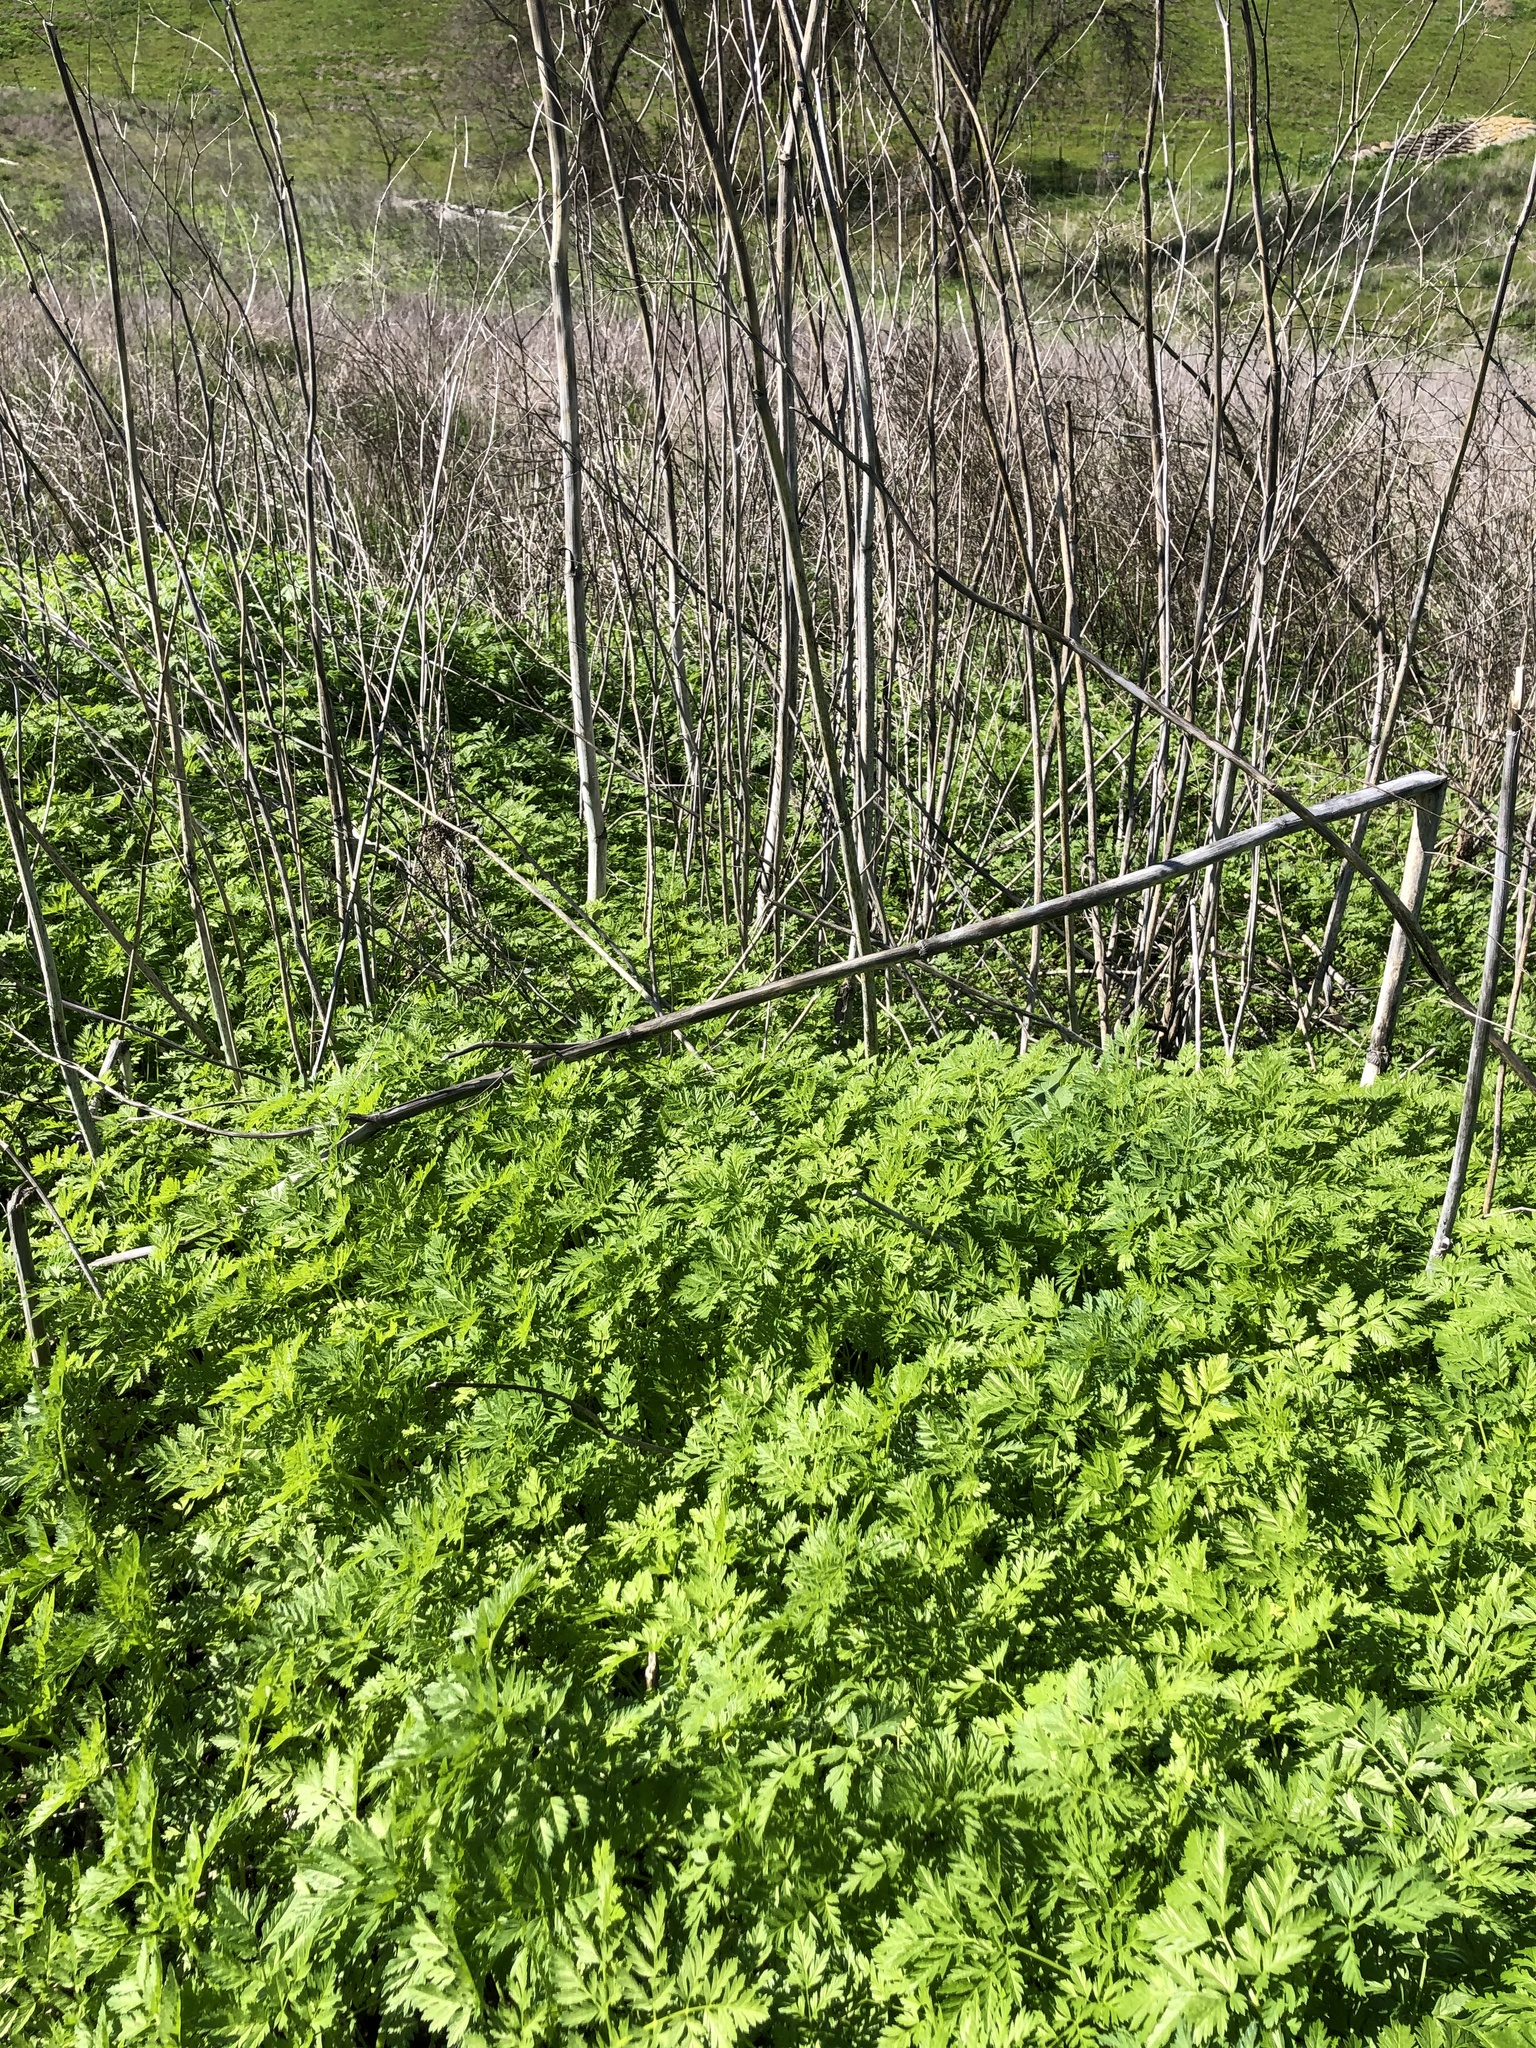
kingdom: Plantae
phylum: Tracheophyta
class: Magnoliopsida
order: Apiales
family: Apiaceae
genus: Conium
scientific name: Conium maculatum
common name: Hemlock
